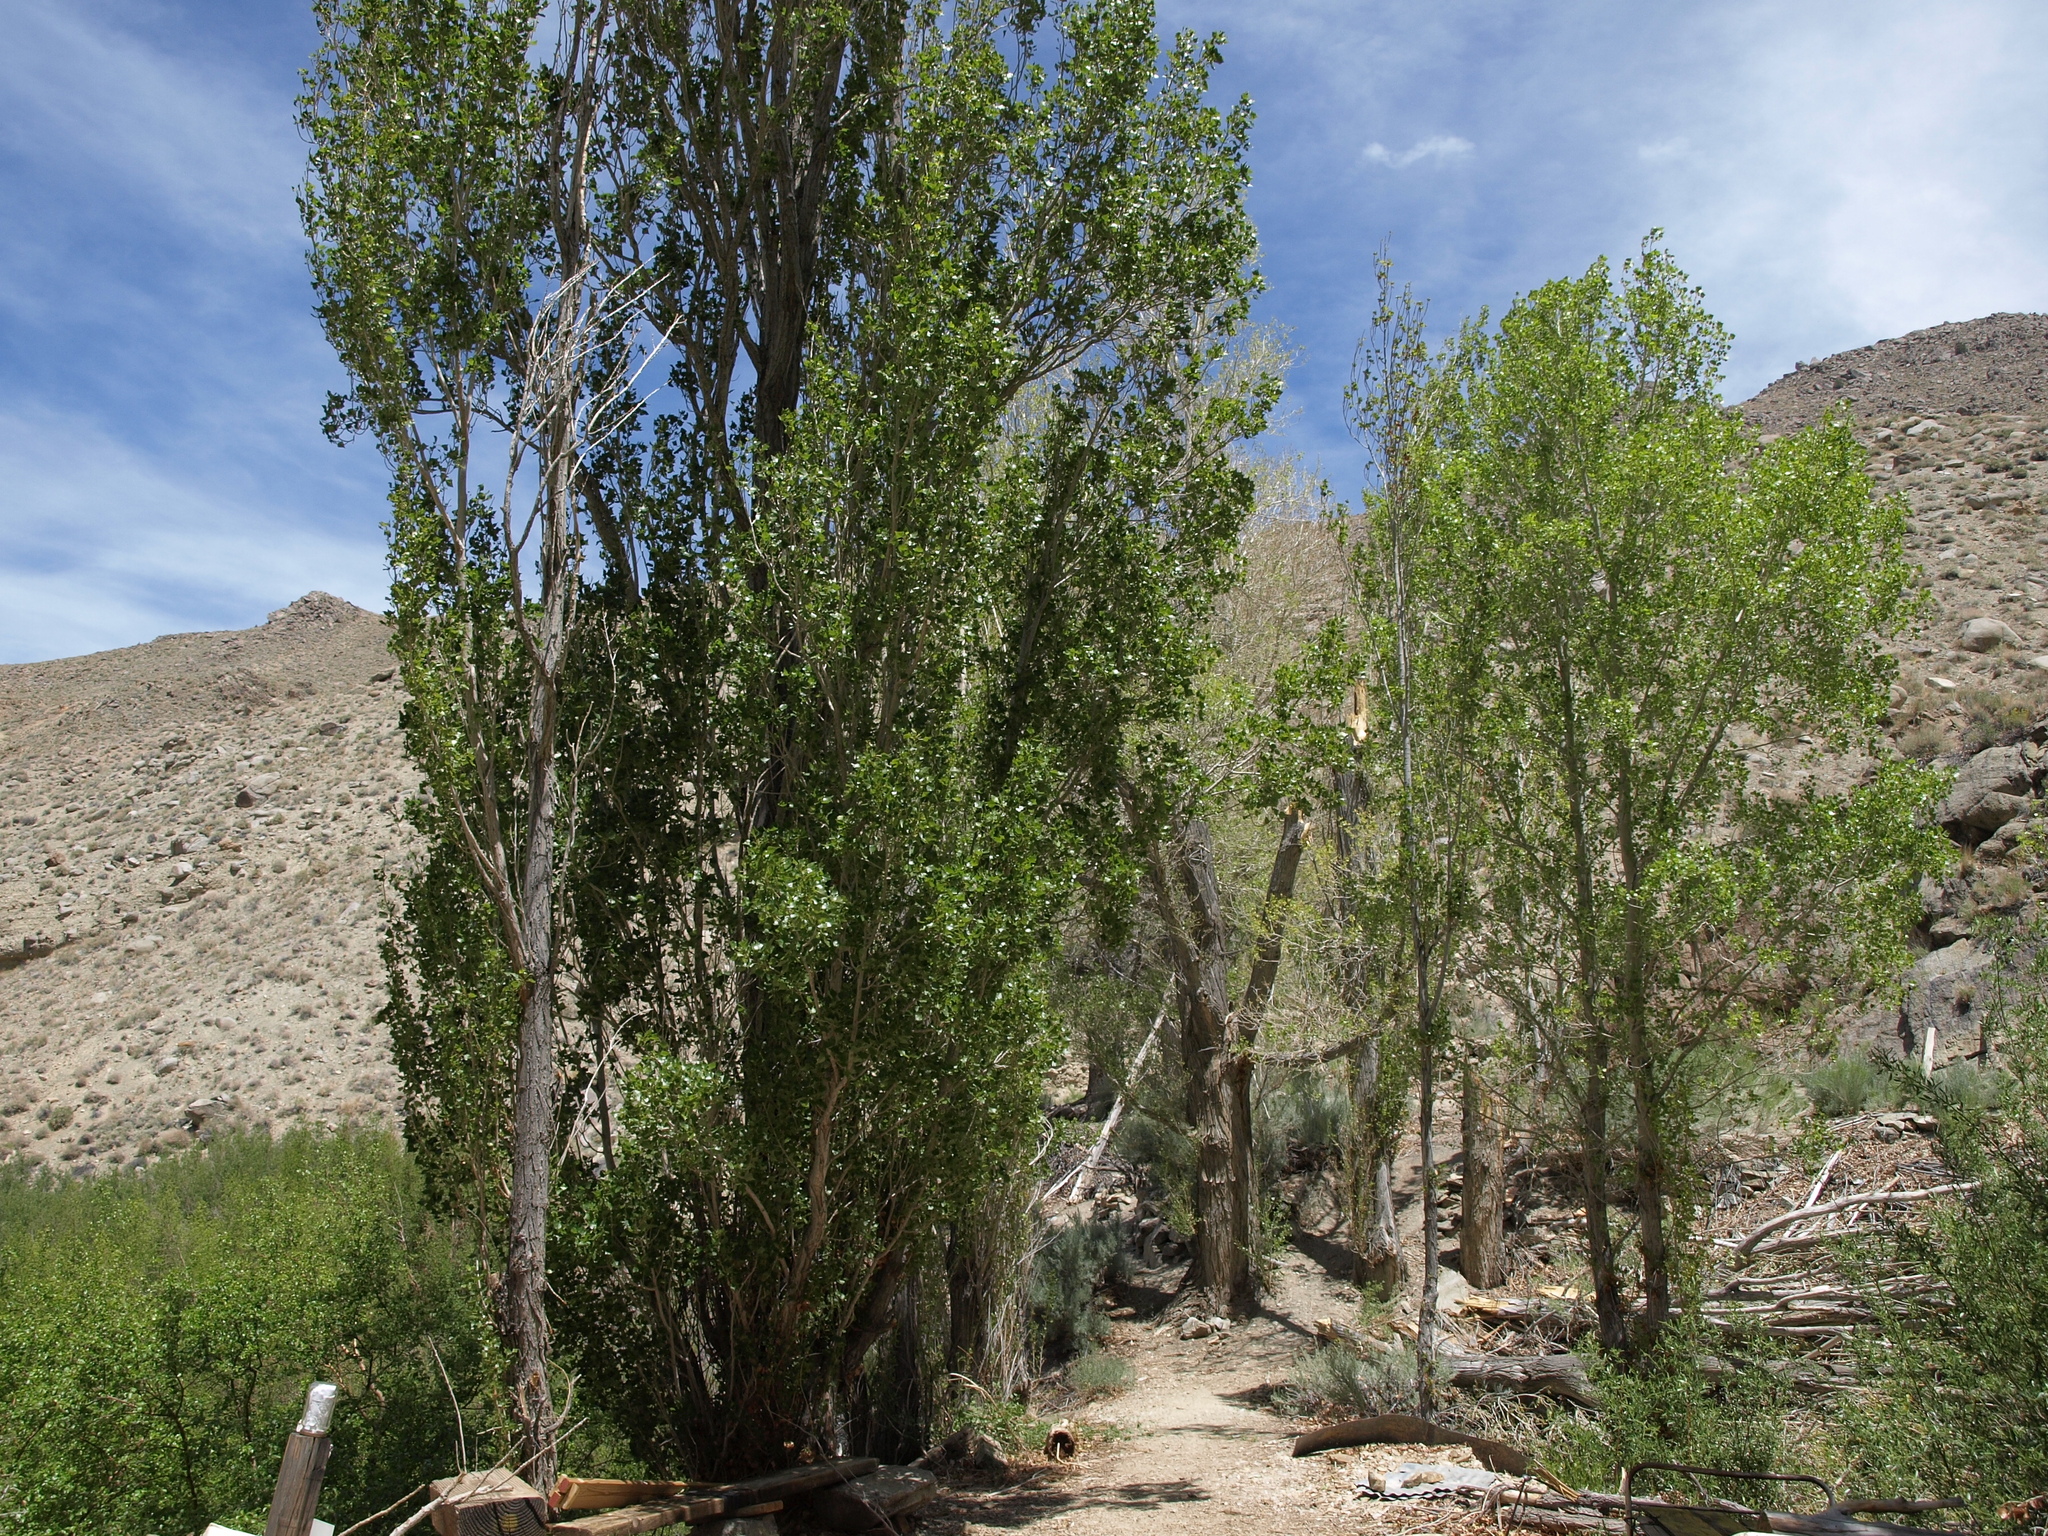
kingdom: Plantae
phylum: Tracheophyta
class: Magnoliopsida
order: Malpighiales
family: Salicaceae
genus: Populus
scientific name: Populus nigra
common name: Black poplar
